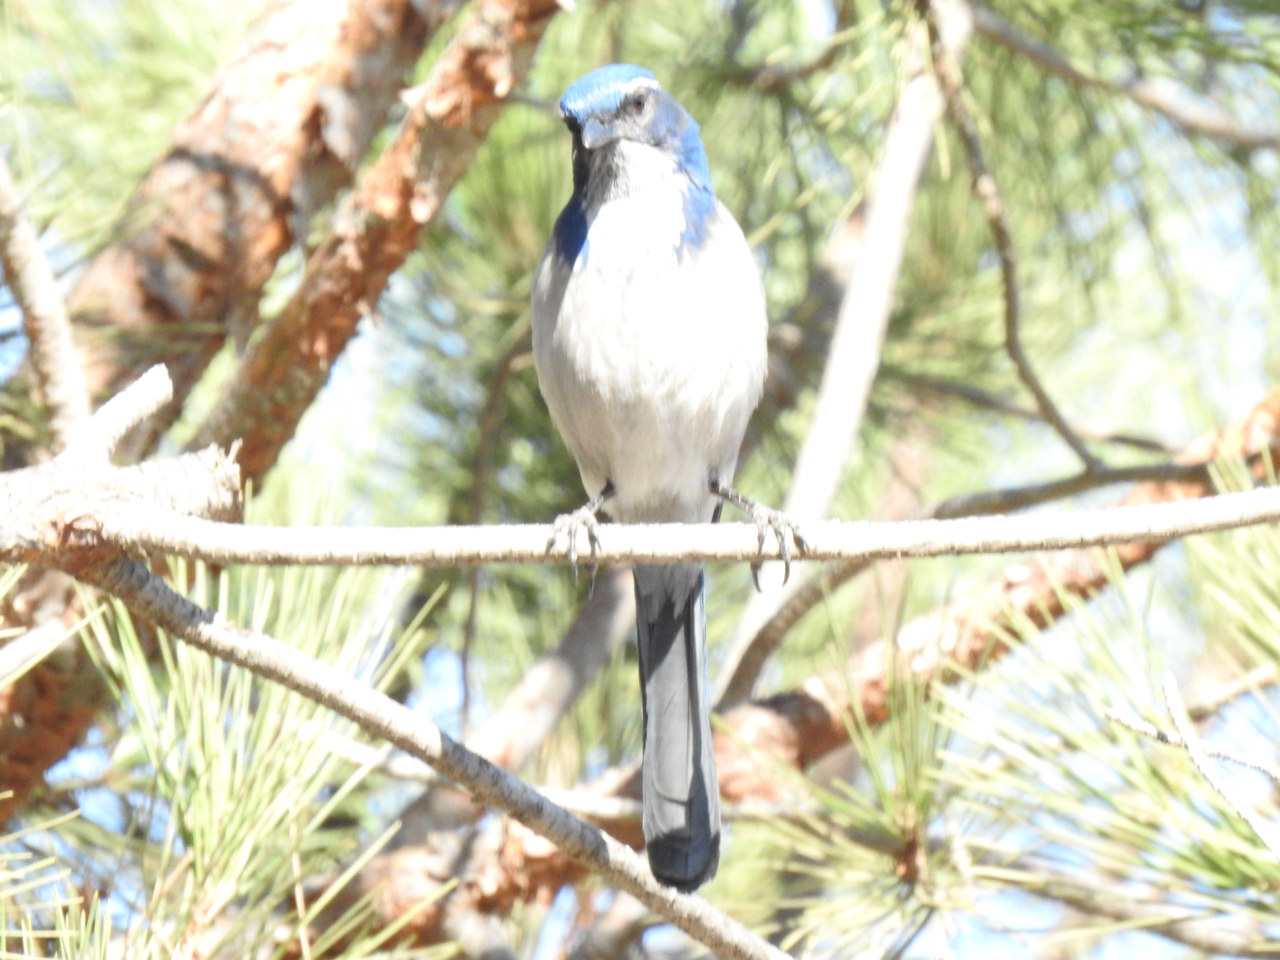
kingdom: Animalia
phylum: Chordata
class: Aves
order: Passeriformes
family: Corvidae
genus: Aphelocoma
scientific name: Aphelocoma californica
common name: California scrub-jay
